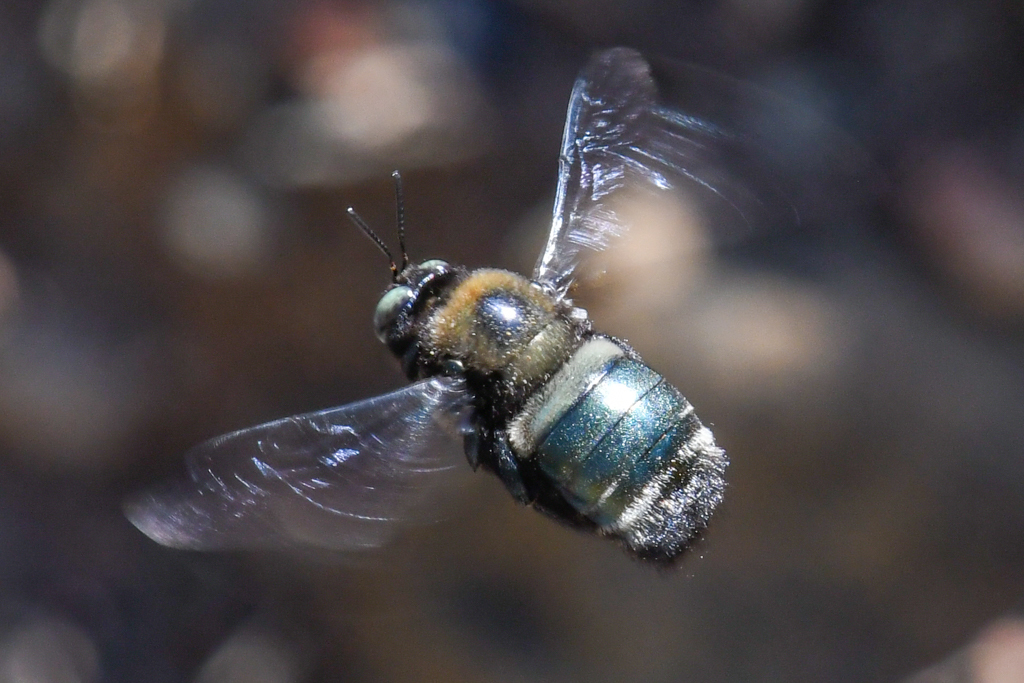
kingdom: Animalia
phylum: Arthropoda
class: Insecta
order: Hymenoptera
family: Apidae
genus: Xylocopa
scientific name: Xylocopa californica
